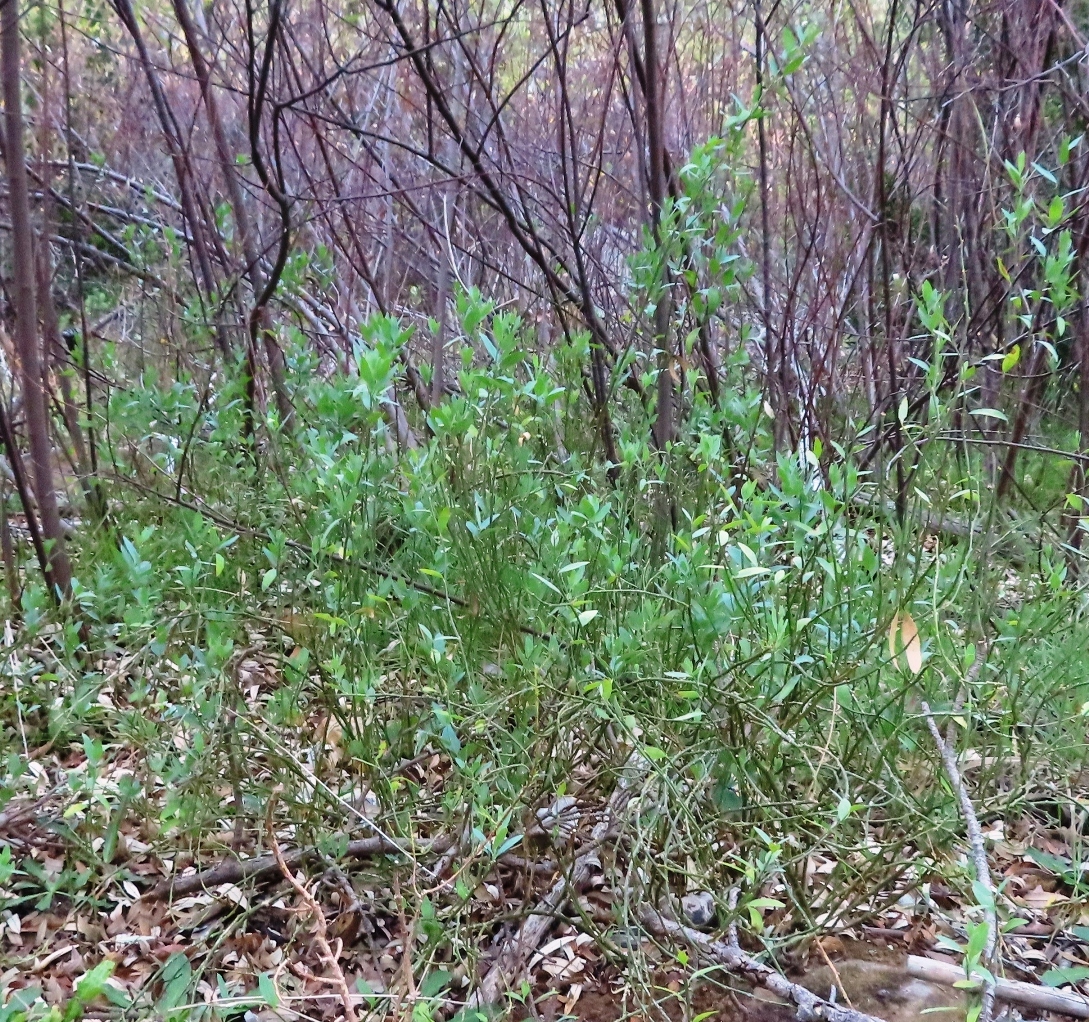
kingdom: Plantae
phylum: Tracheophyta
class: Magnoliopsida
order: Solanales
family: Montiniaceae
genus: Montinia
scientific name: Montinia caryophyllacea
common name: Wild clove-bush
